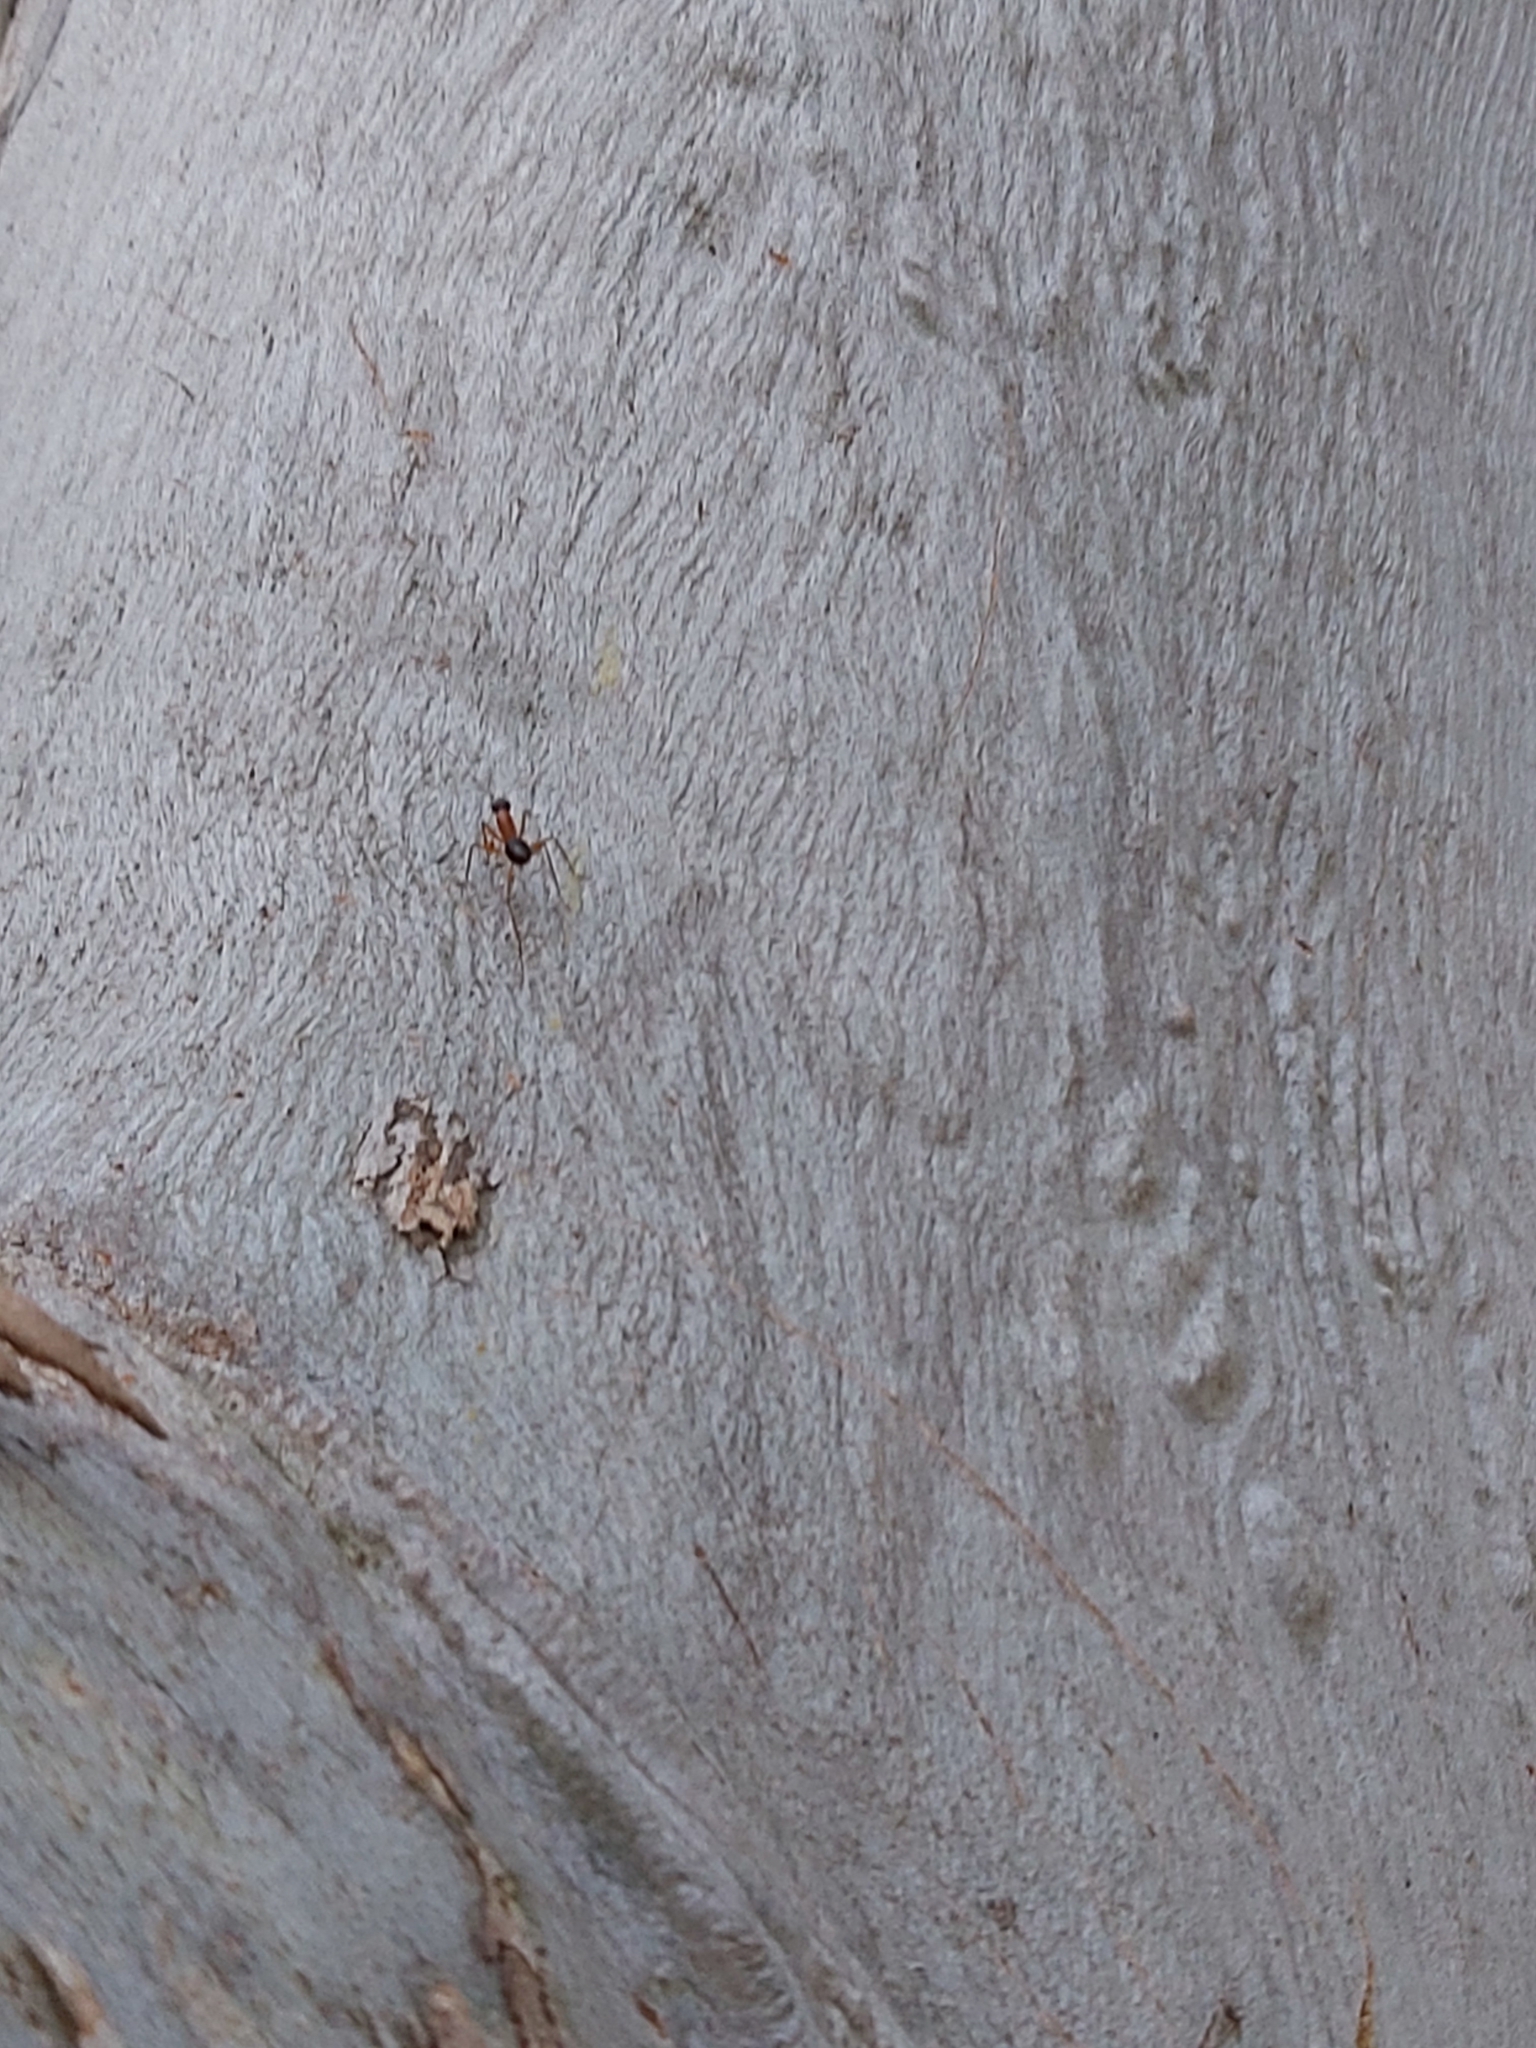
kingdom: Animalia
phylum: Arthropoda
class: Insecta
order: Hymenoptera
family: Formicidae
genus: Camponotus
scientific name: Camponotus consobrinus
